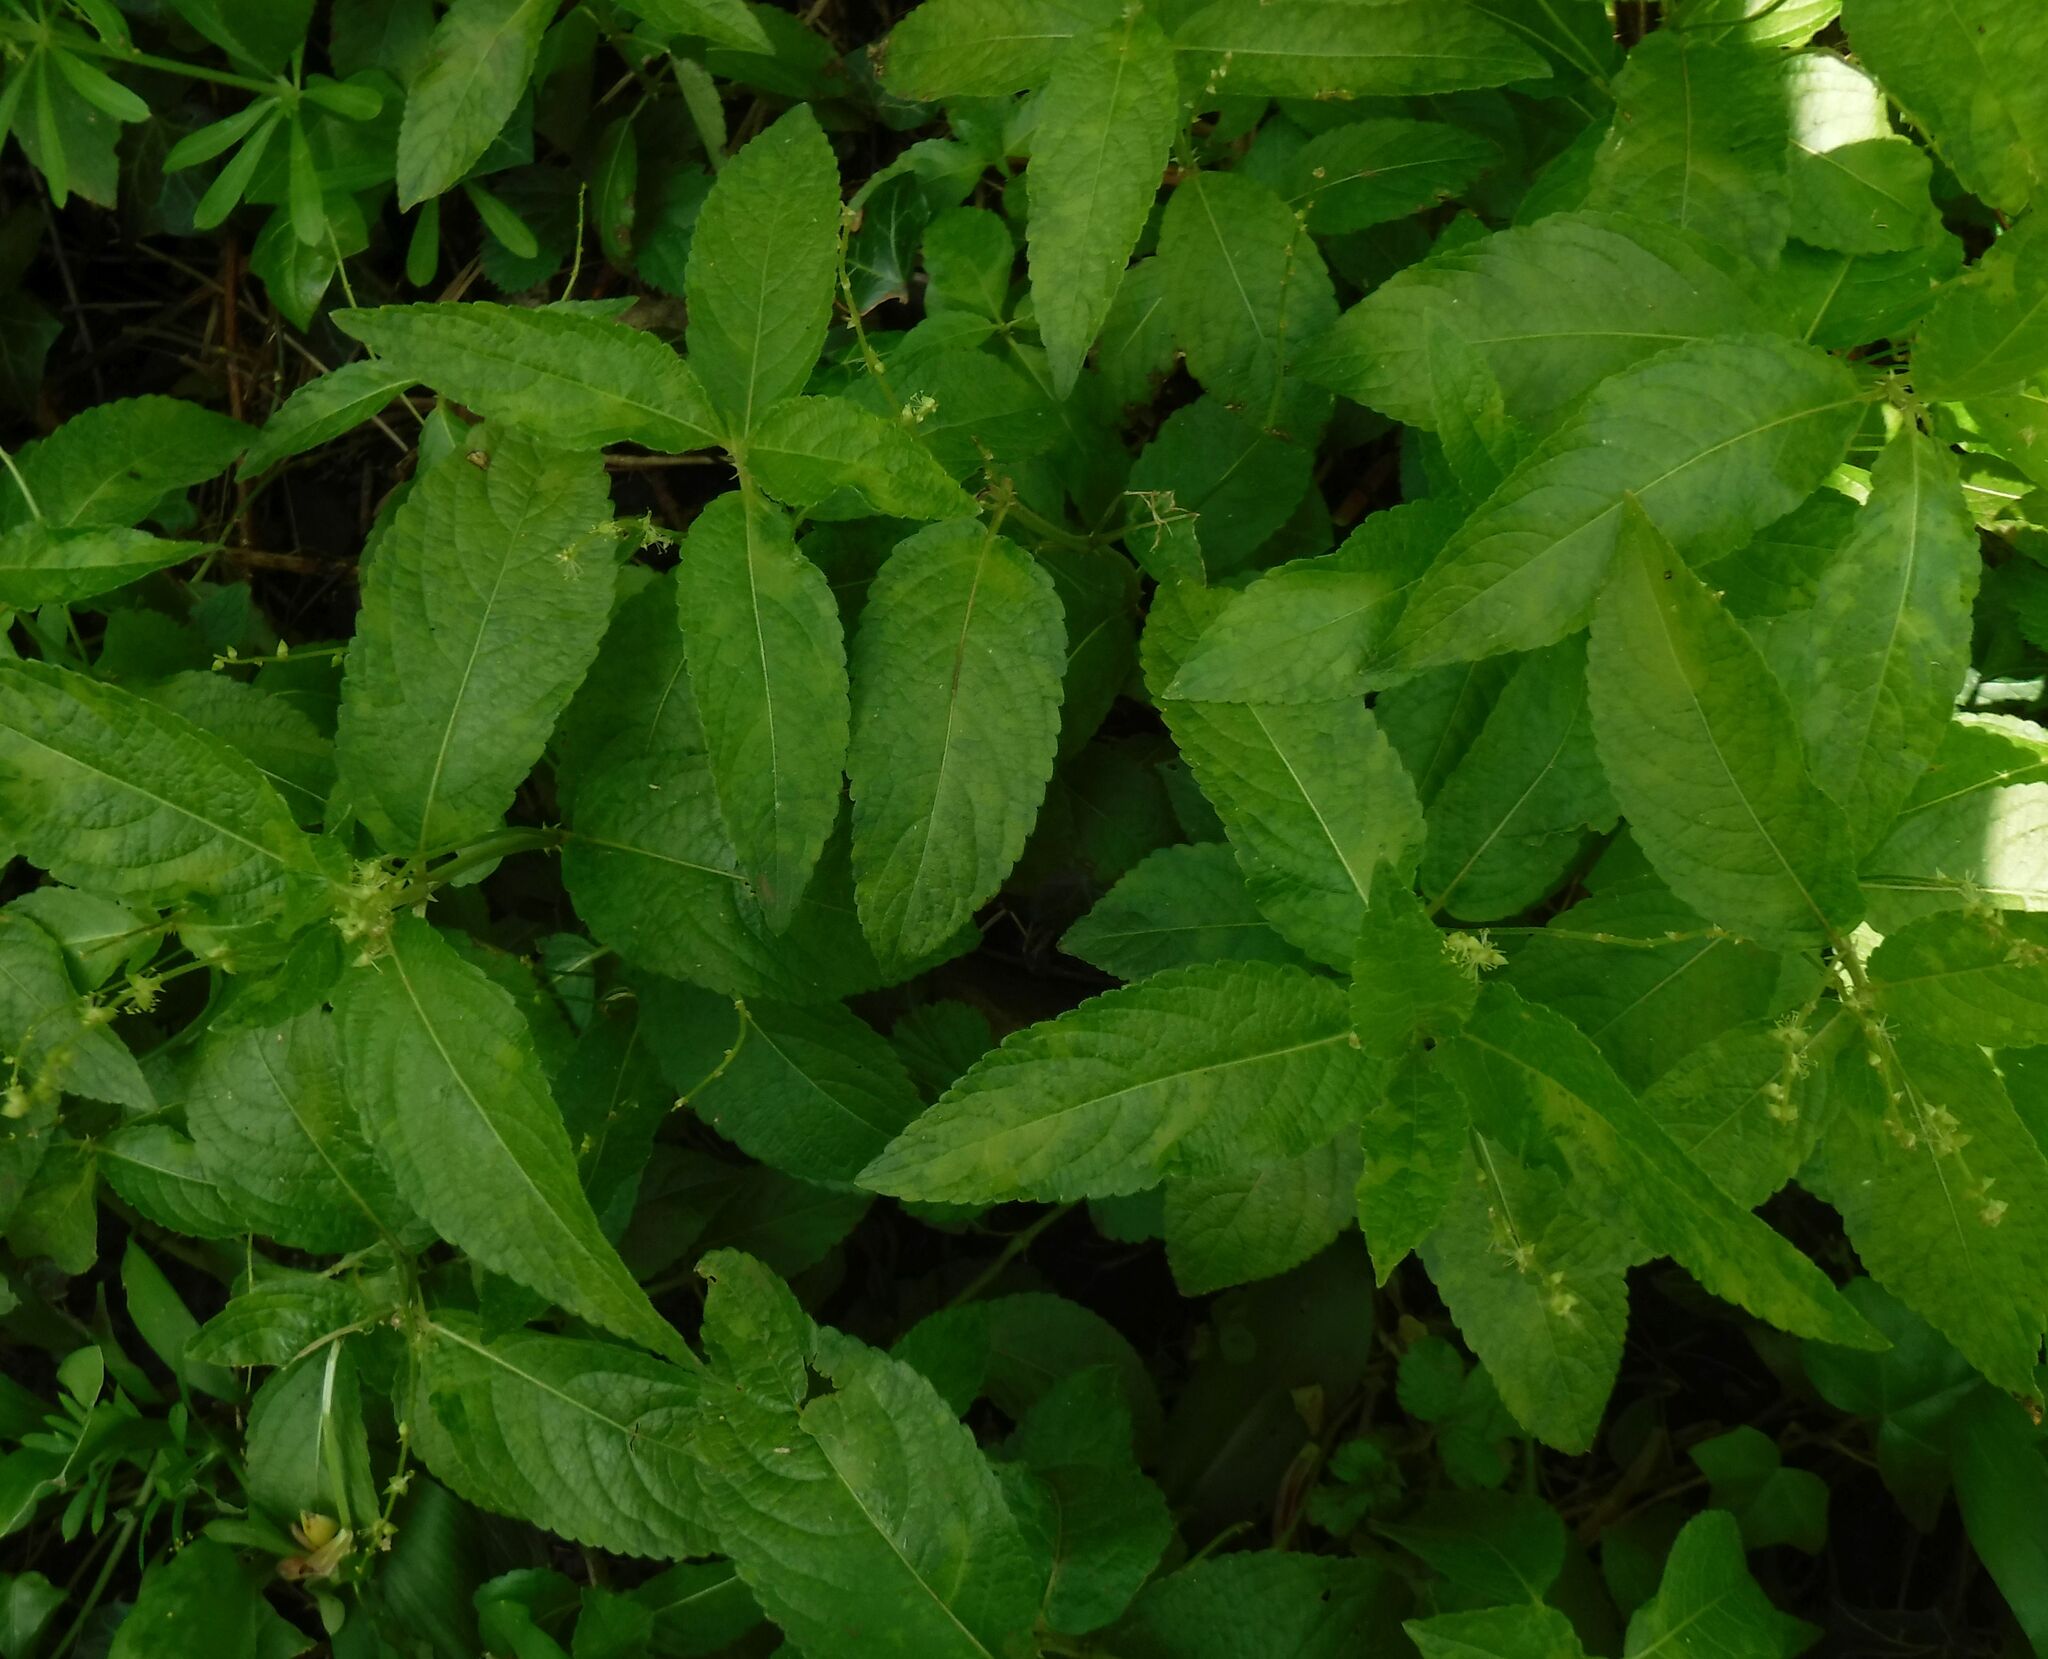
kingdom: Plantae
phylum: Tracheophyta
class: Magnoliopsida
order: Malpighiales
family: Euphorbiaceae
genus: Mercurialis
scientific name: Mercurialis perennis
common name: Dog mercury
